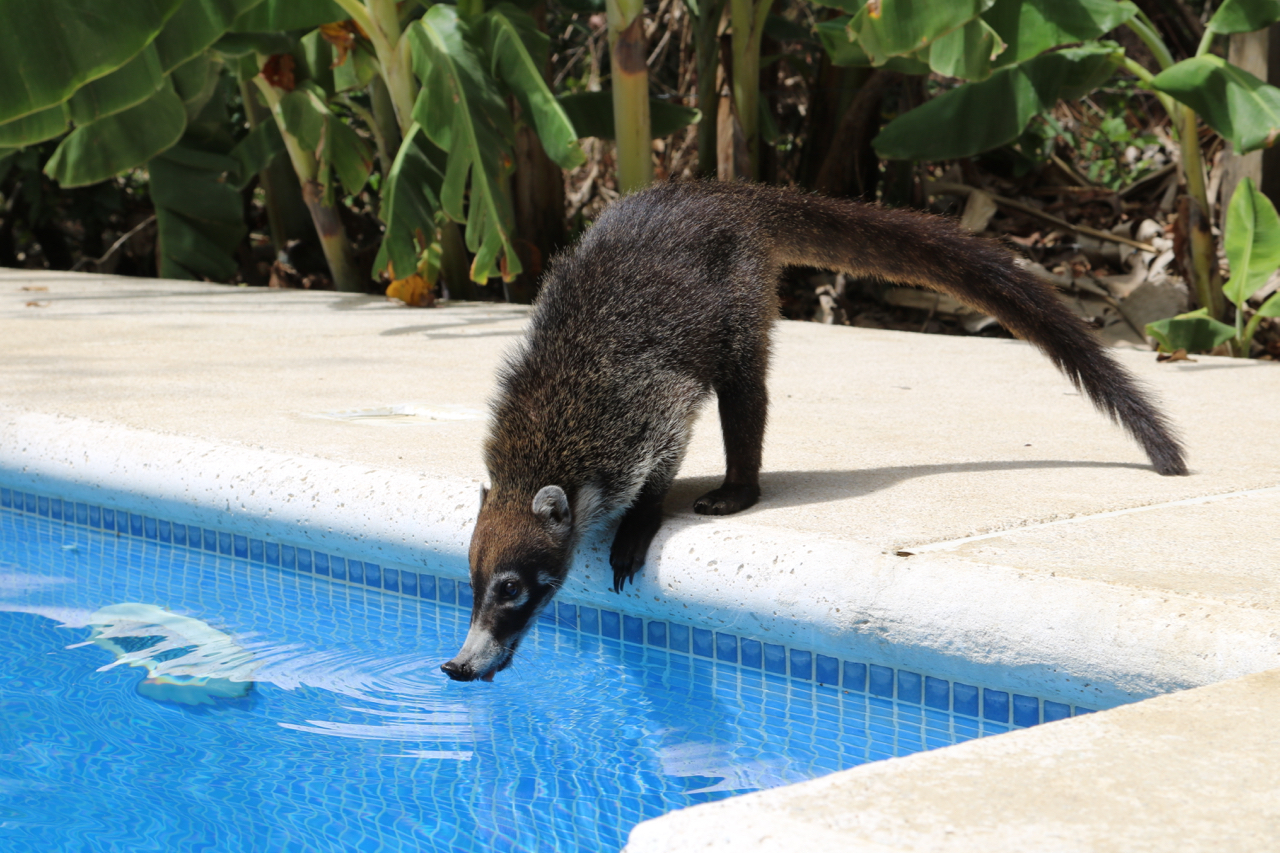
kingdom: Animalia
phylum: Chordata
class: Mammalia
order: Carnivora
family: Procyonidae
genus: Nasua
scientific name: Nasua narica
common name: White-nosed coati
